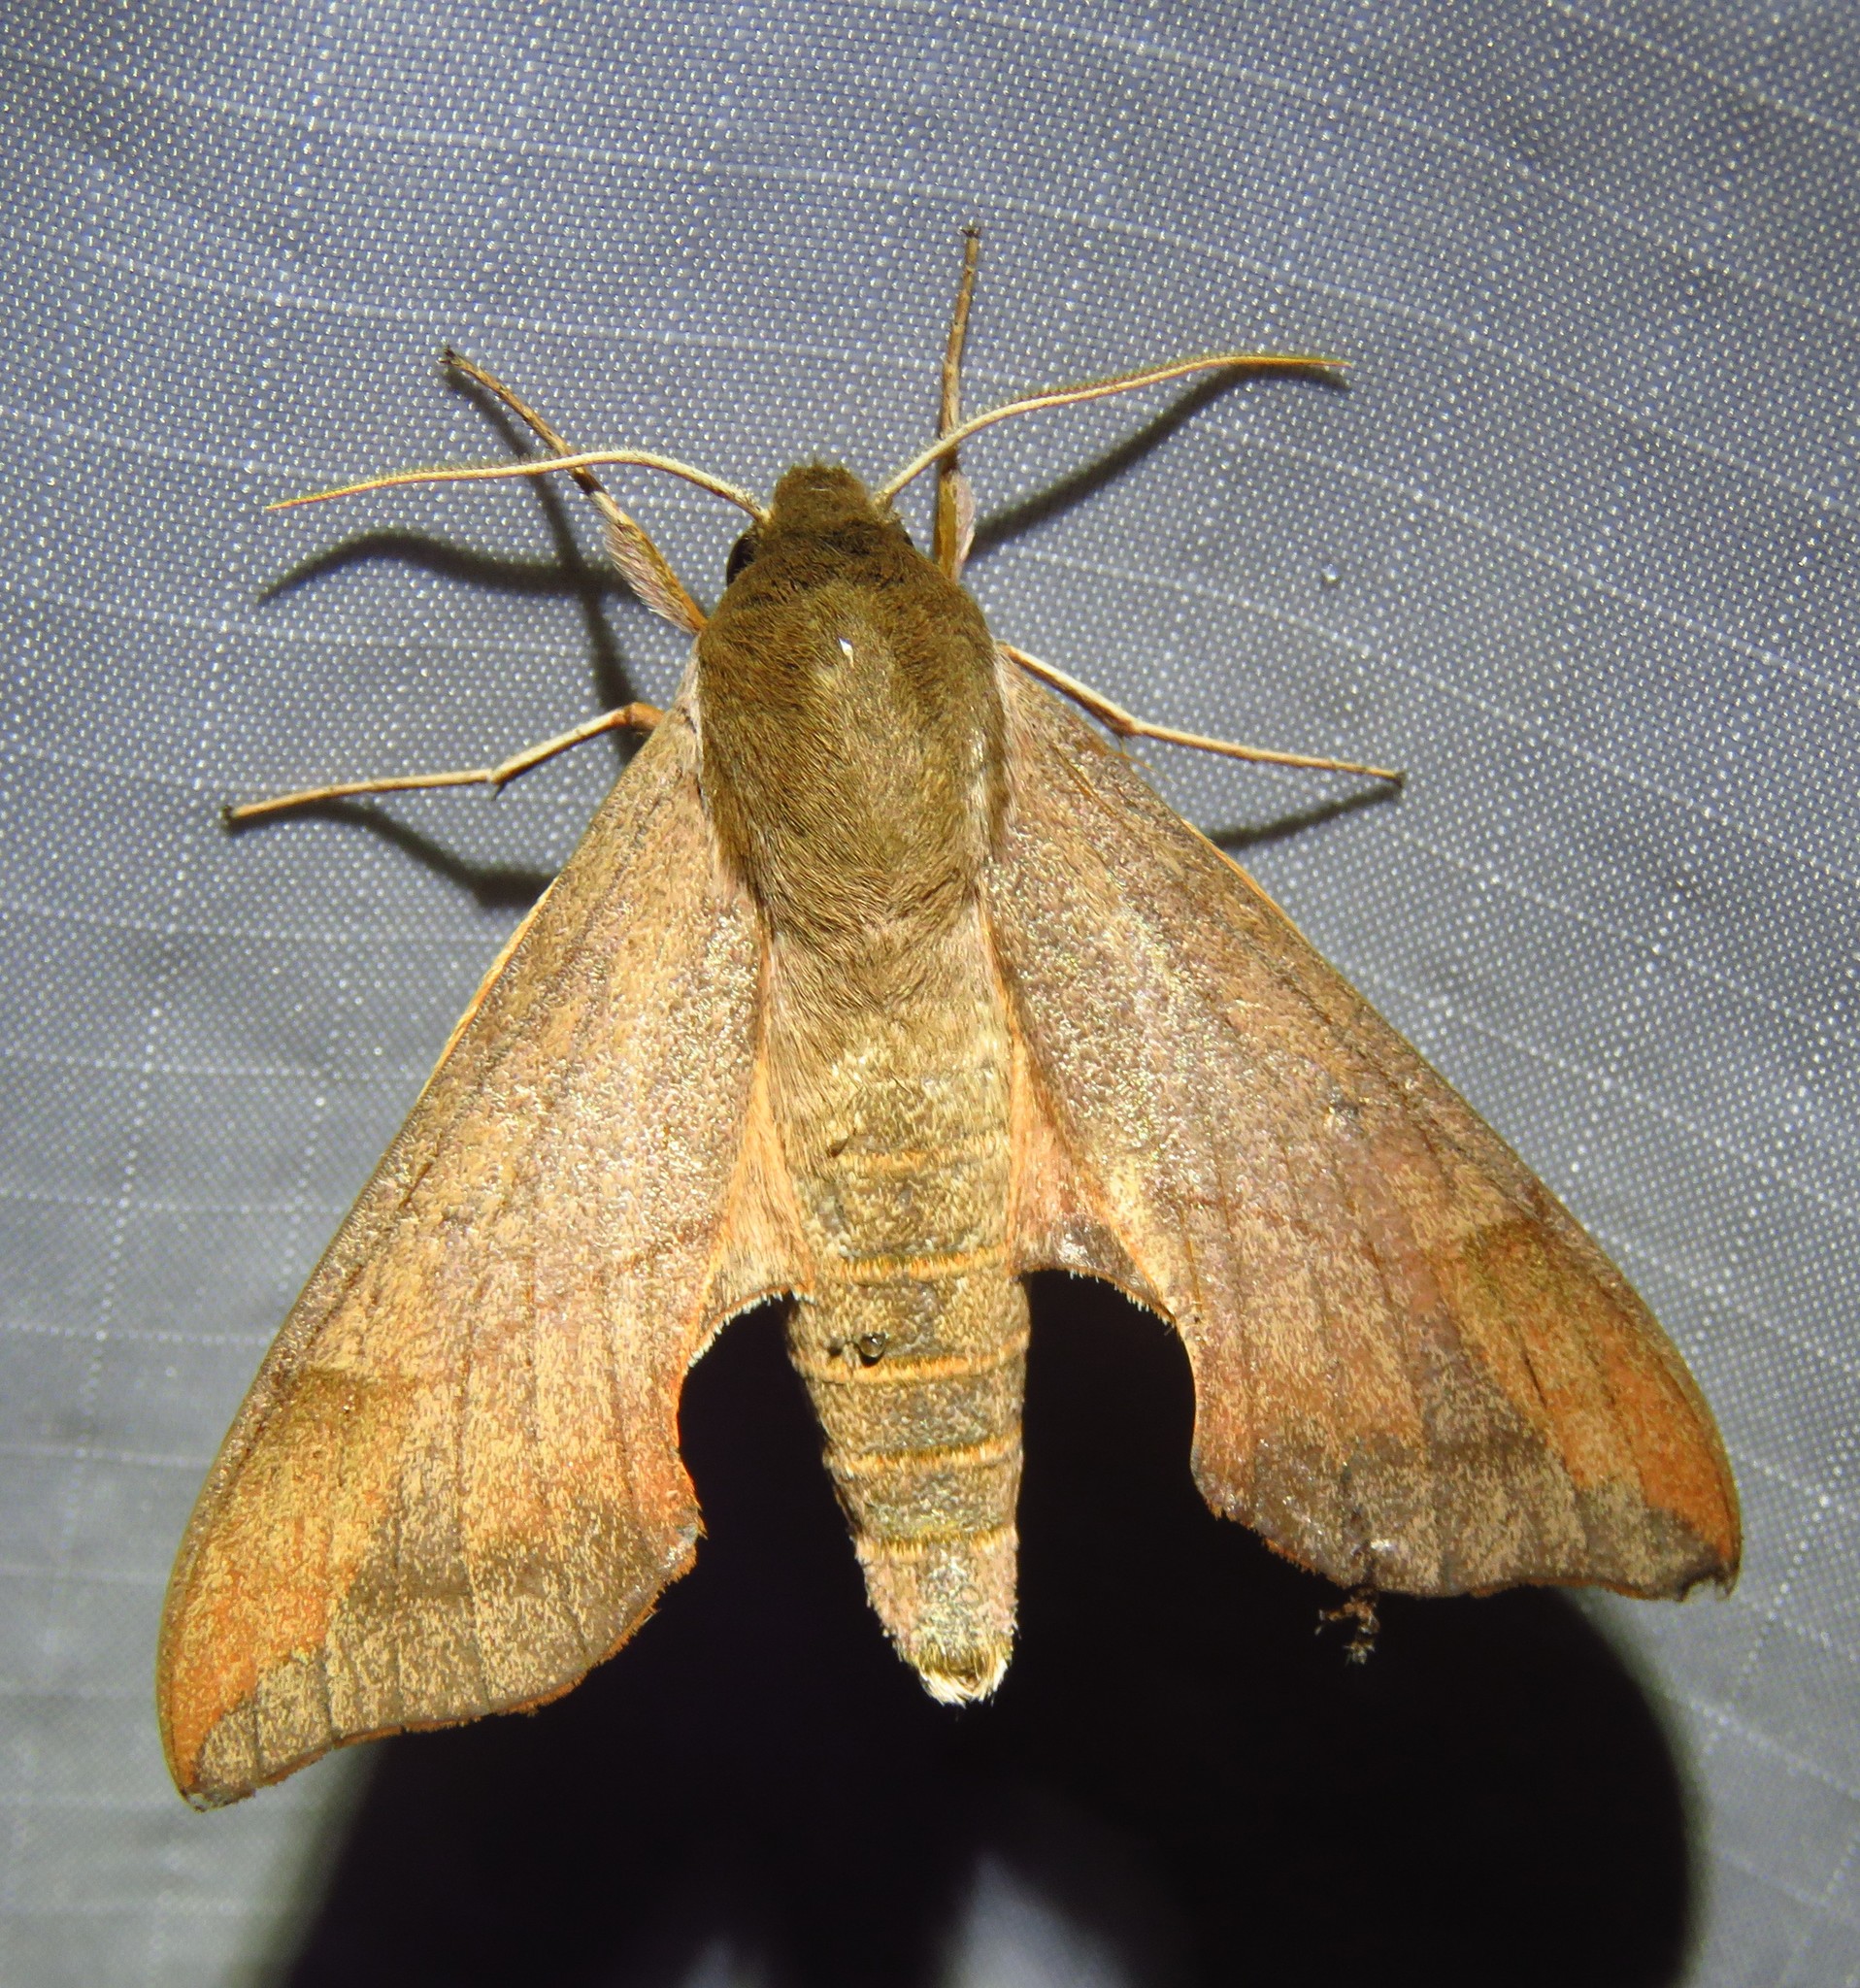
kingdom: Animalia
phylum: Arthropoda
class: Insecta
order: Lepidoptera
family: Sphingidae
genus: Darapsa
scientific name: Darapsa myron
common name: Hog sphinx
